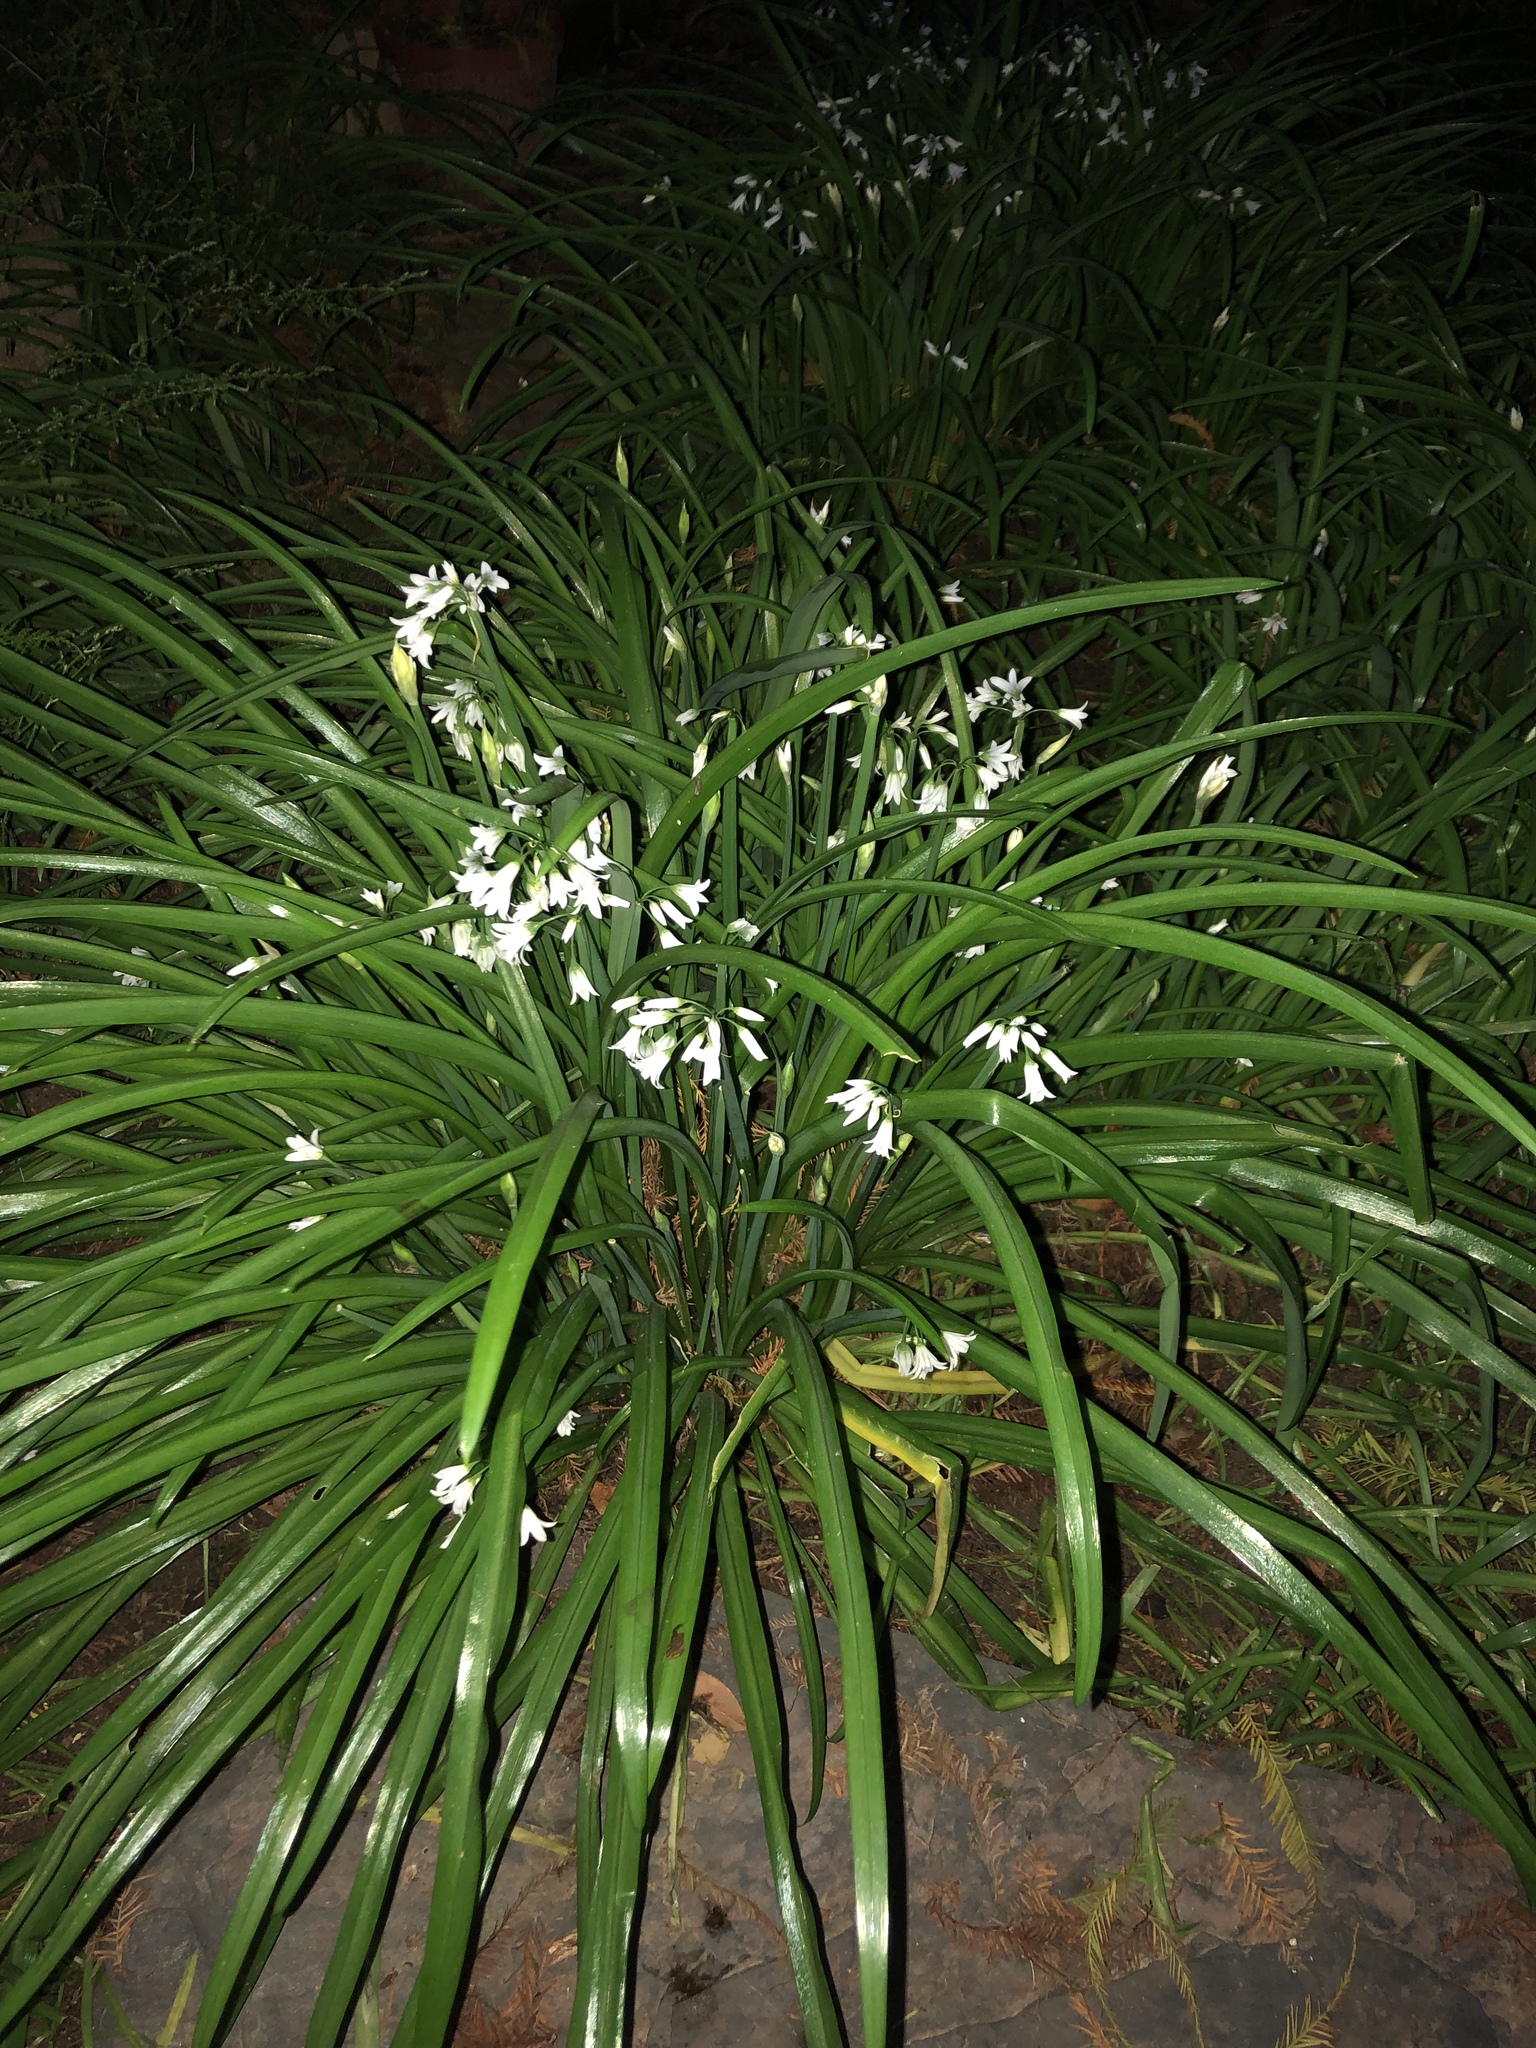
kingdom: Plantae
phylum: Tracheophyta
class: Liliopsida
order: Asparagales
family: Amaryllidaceae
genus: Allium
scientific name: Allium triquetrum
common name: Three-cornered garlic
